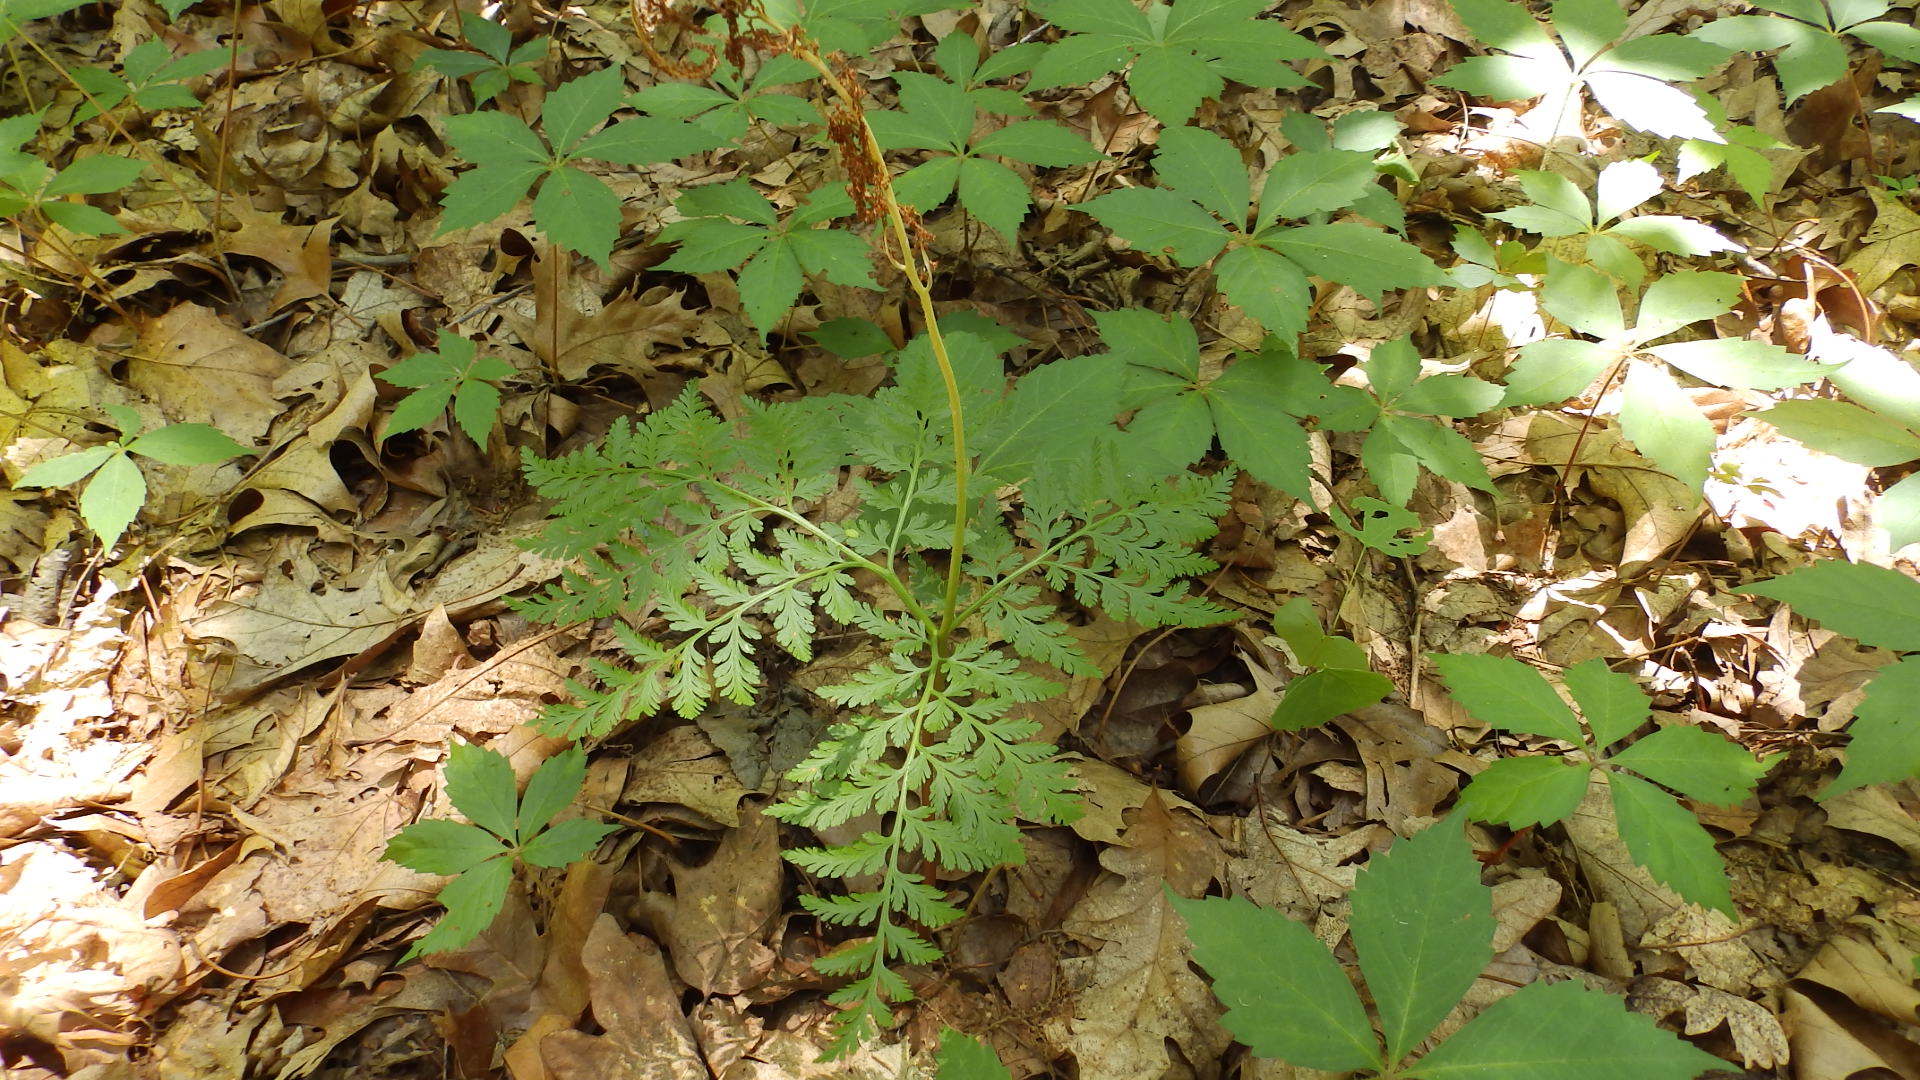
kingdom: Plantae
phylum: Tracheophyta
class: Polypodiopsida
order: Ophioglossales
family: Ophioglossaceae
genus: Botrypus
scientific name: Botrypus virginianus
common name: Common grapefern
